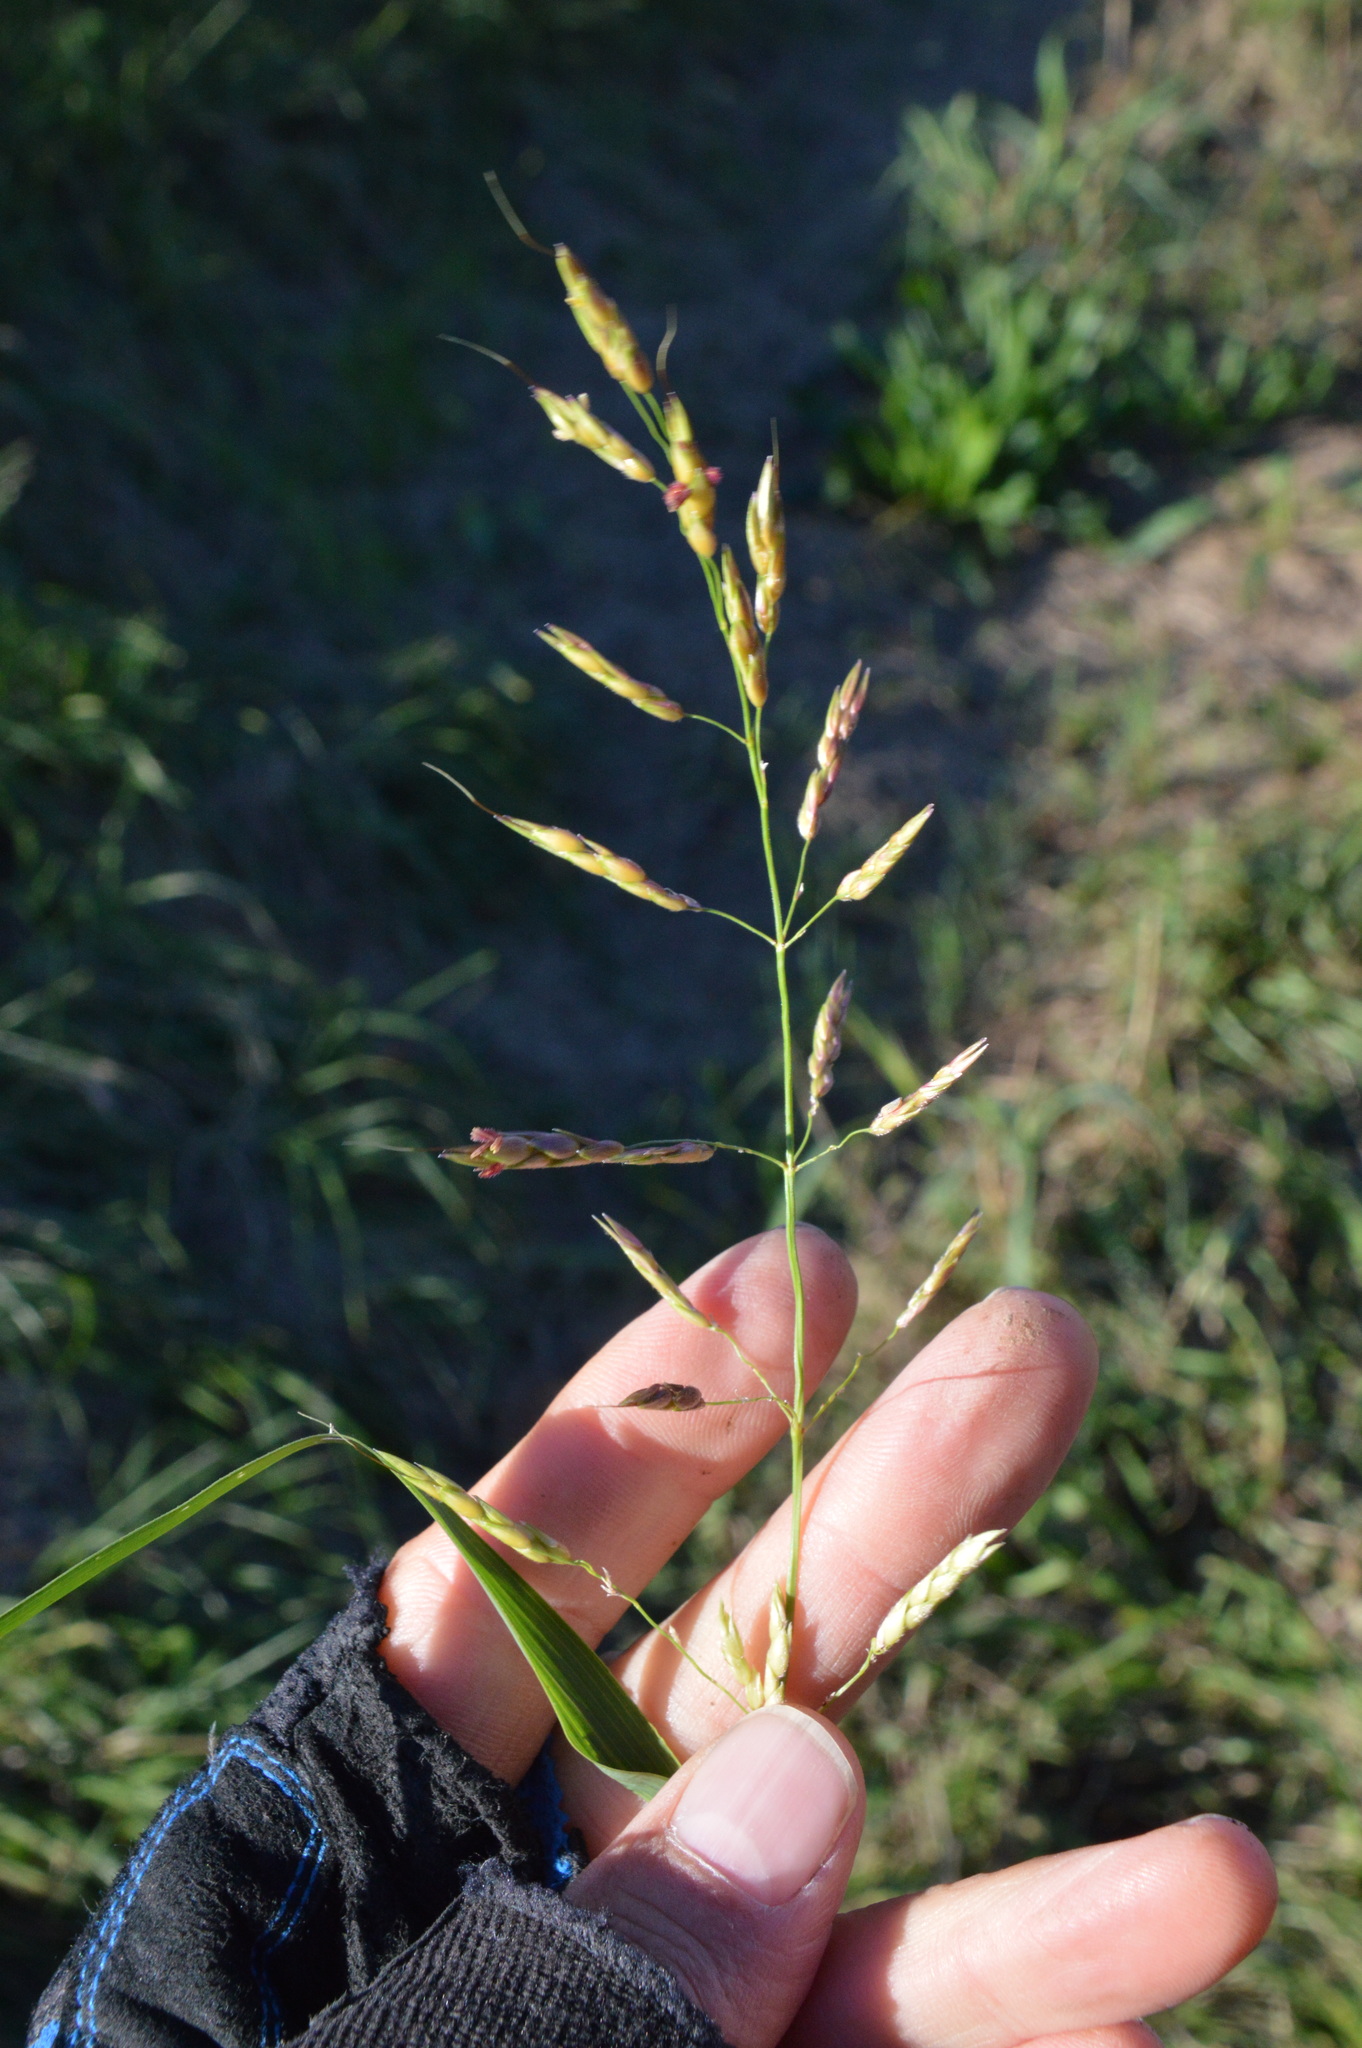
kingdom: Plantae
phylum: Tracheophyta
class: Liliopsida
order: Poales
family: Poaceae
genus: Sorghum
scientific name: Sorghum halepense
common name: Johnson-grass
